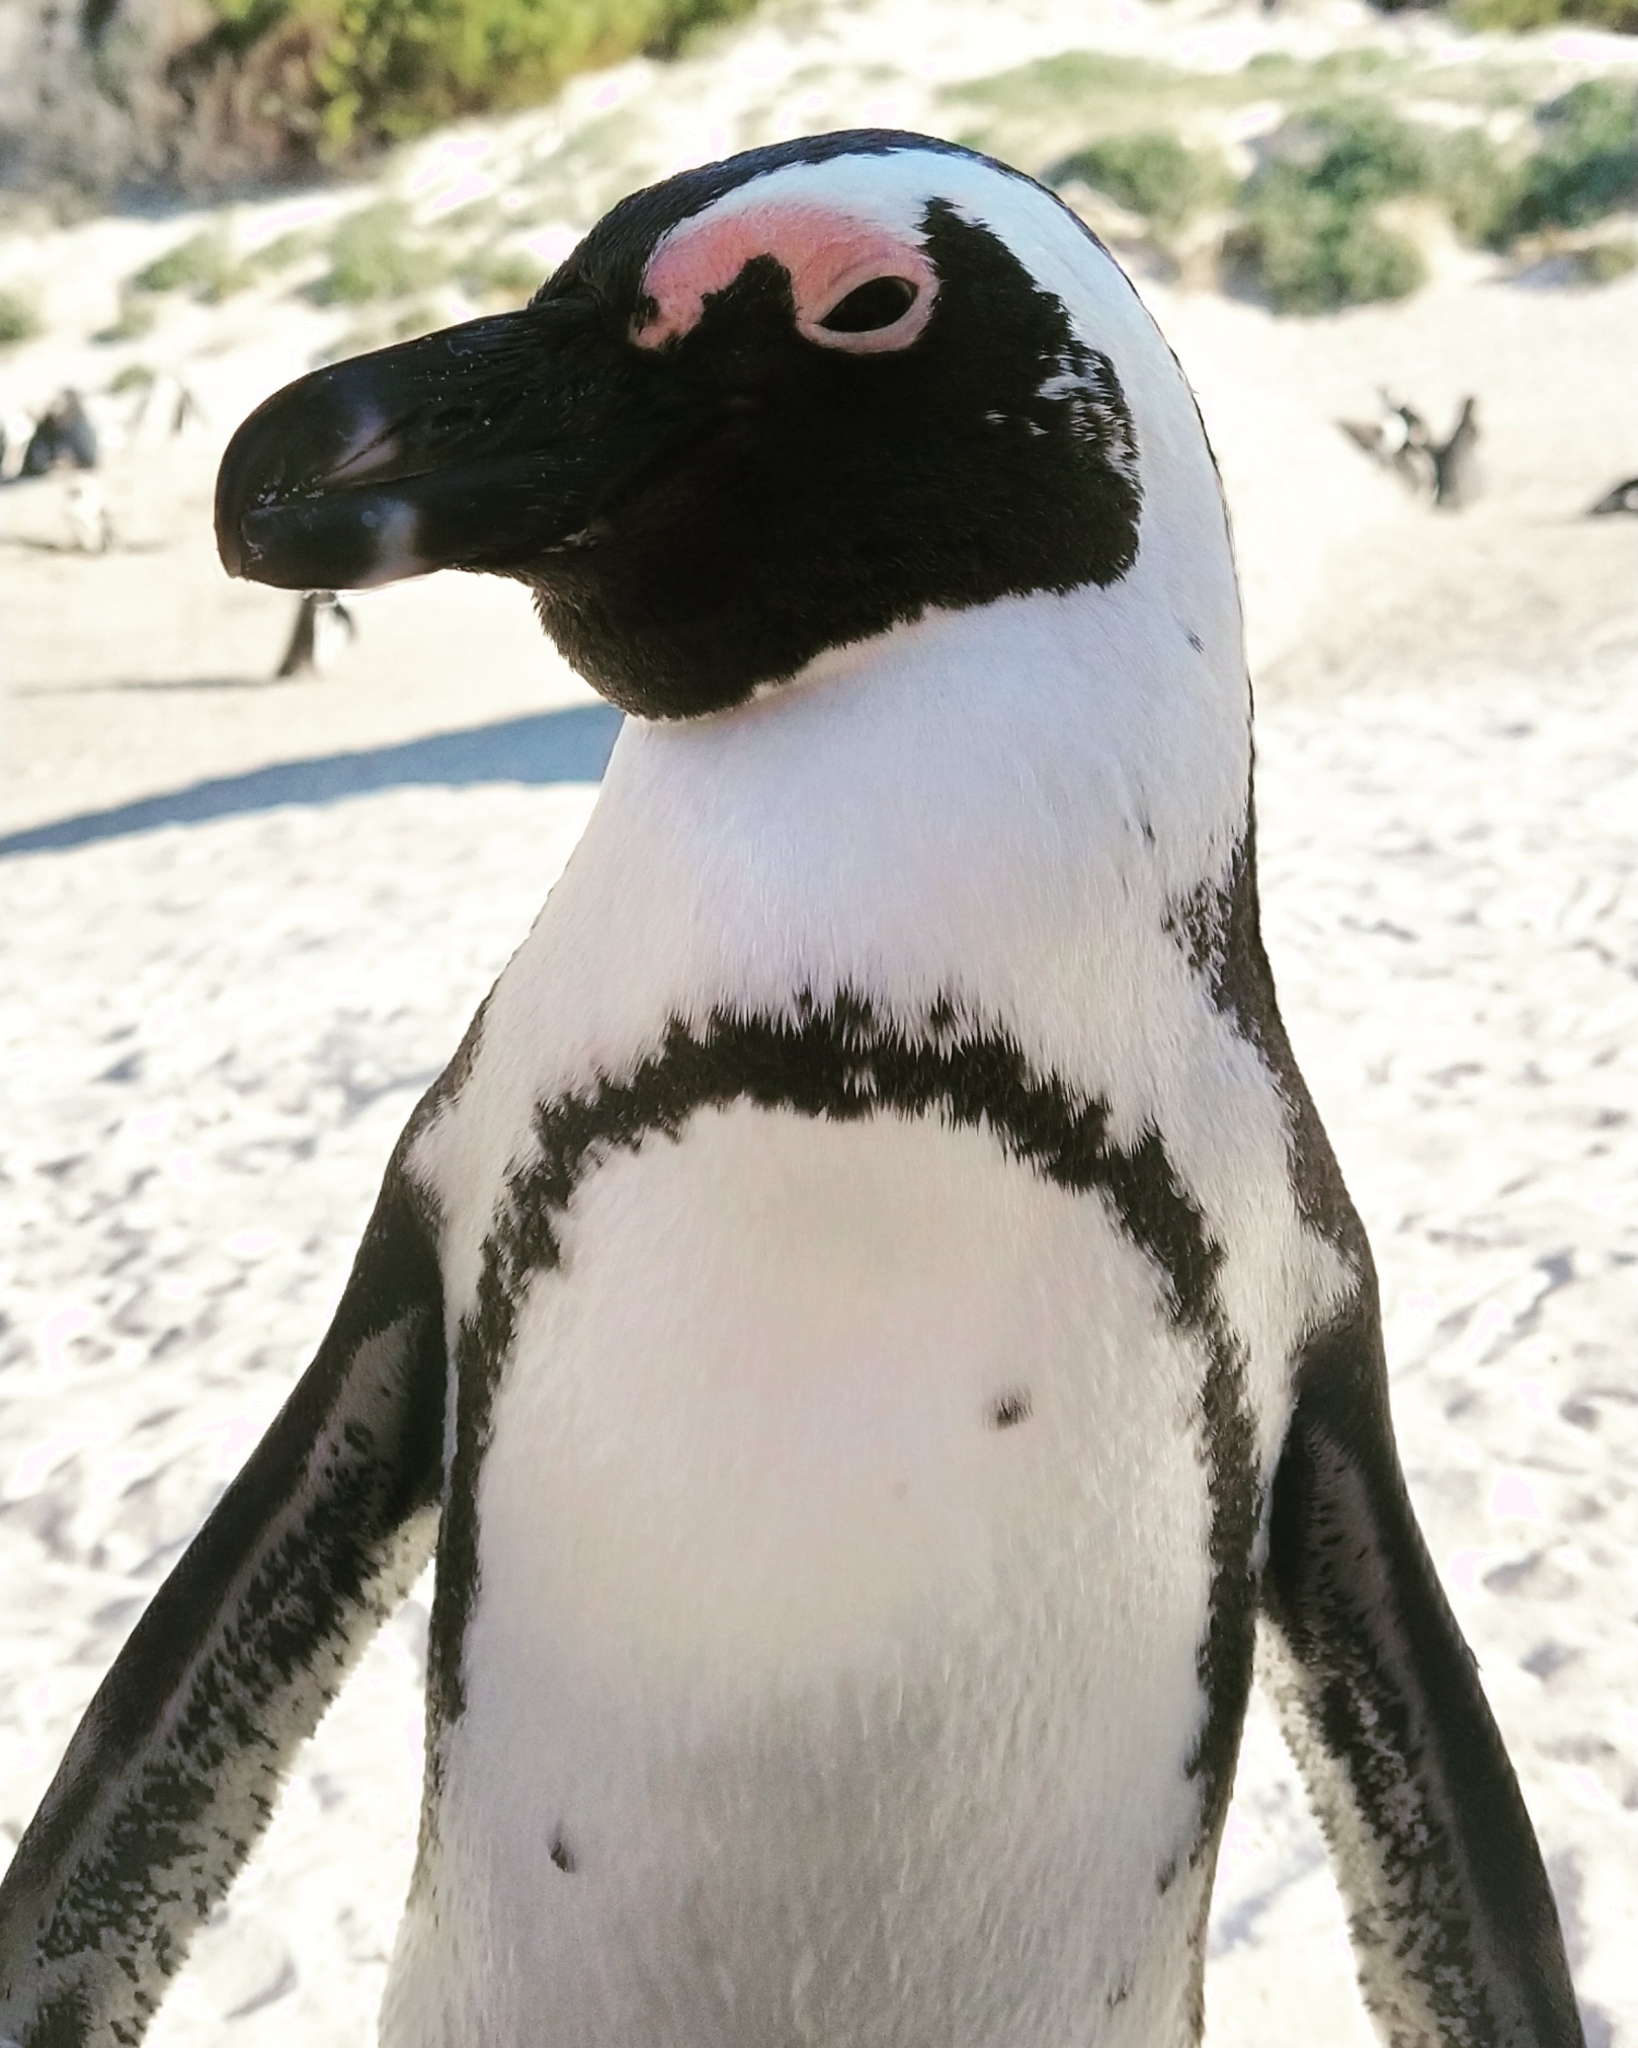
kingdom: Animalia
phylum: Chordata
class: Aves
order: Sphenisciformes
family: Spheniscidae
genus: Spheniscus
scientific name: Spheniscus demersus
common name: African penguin
